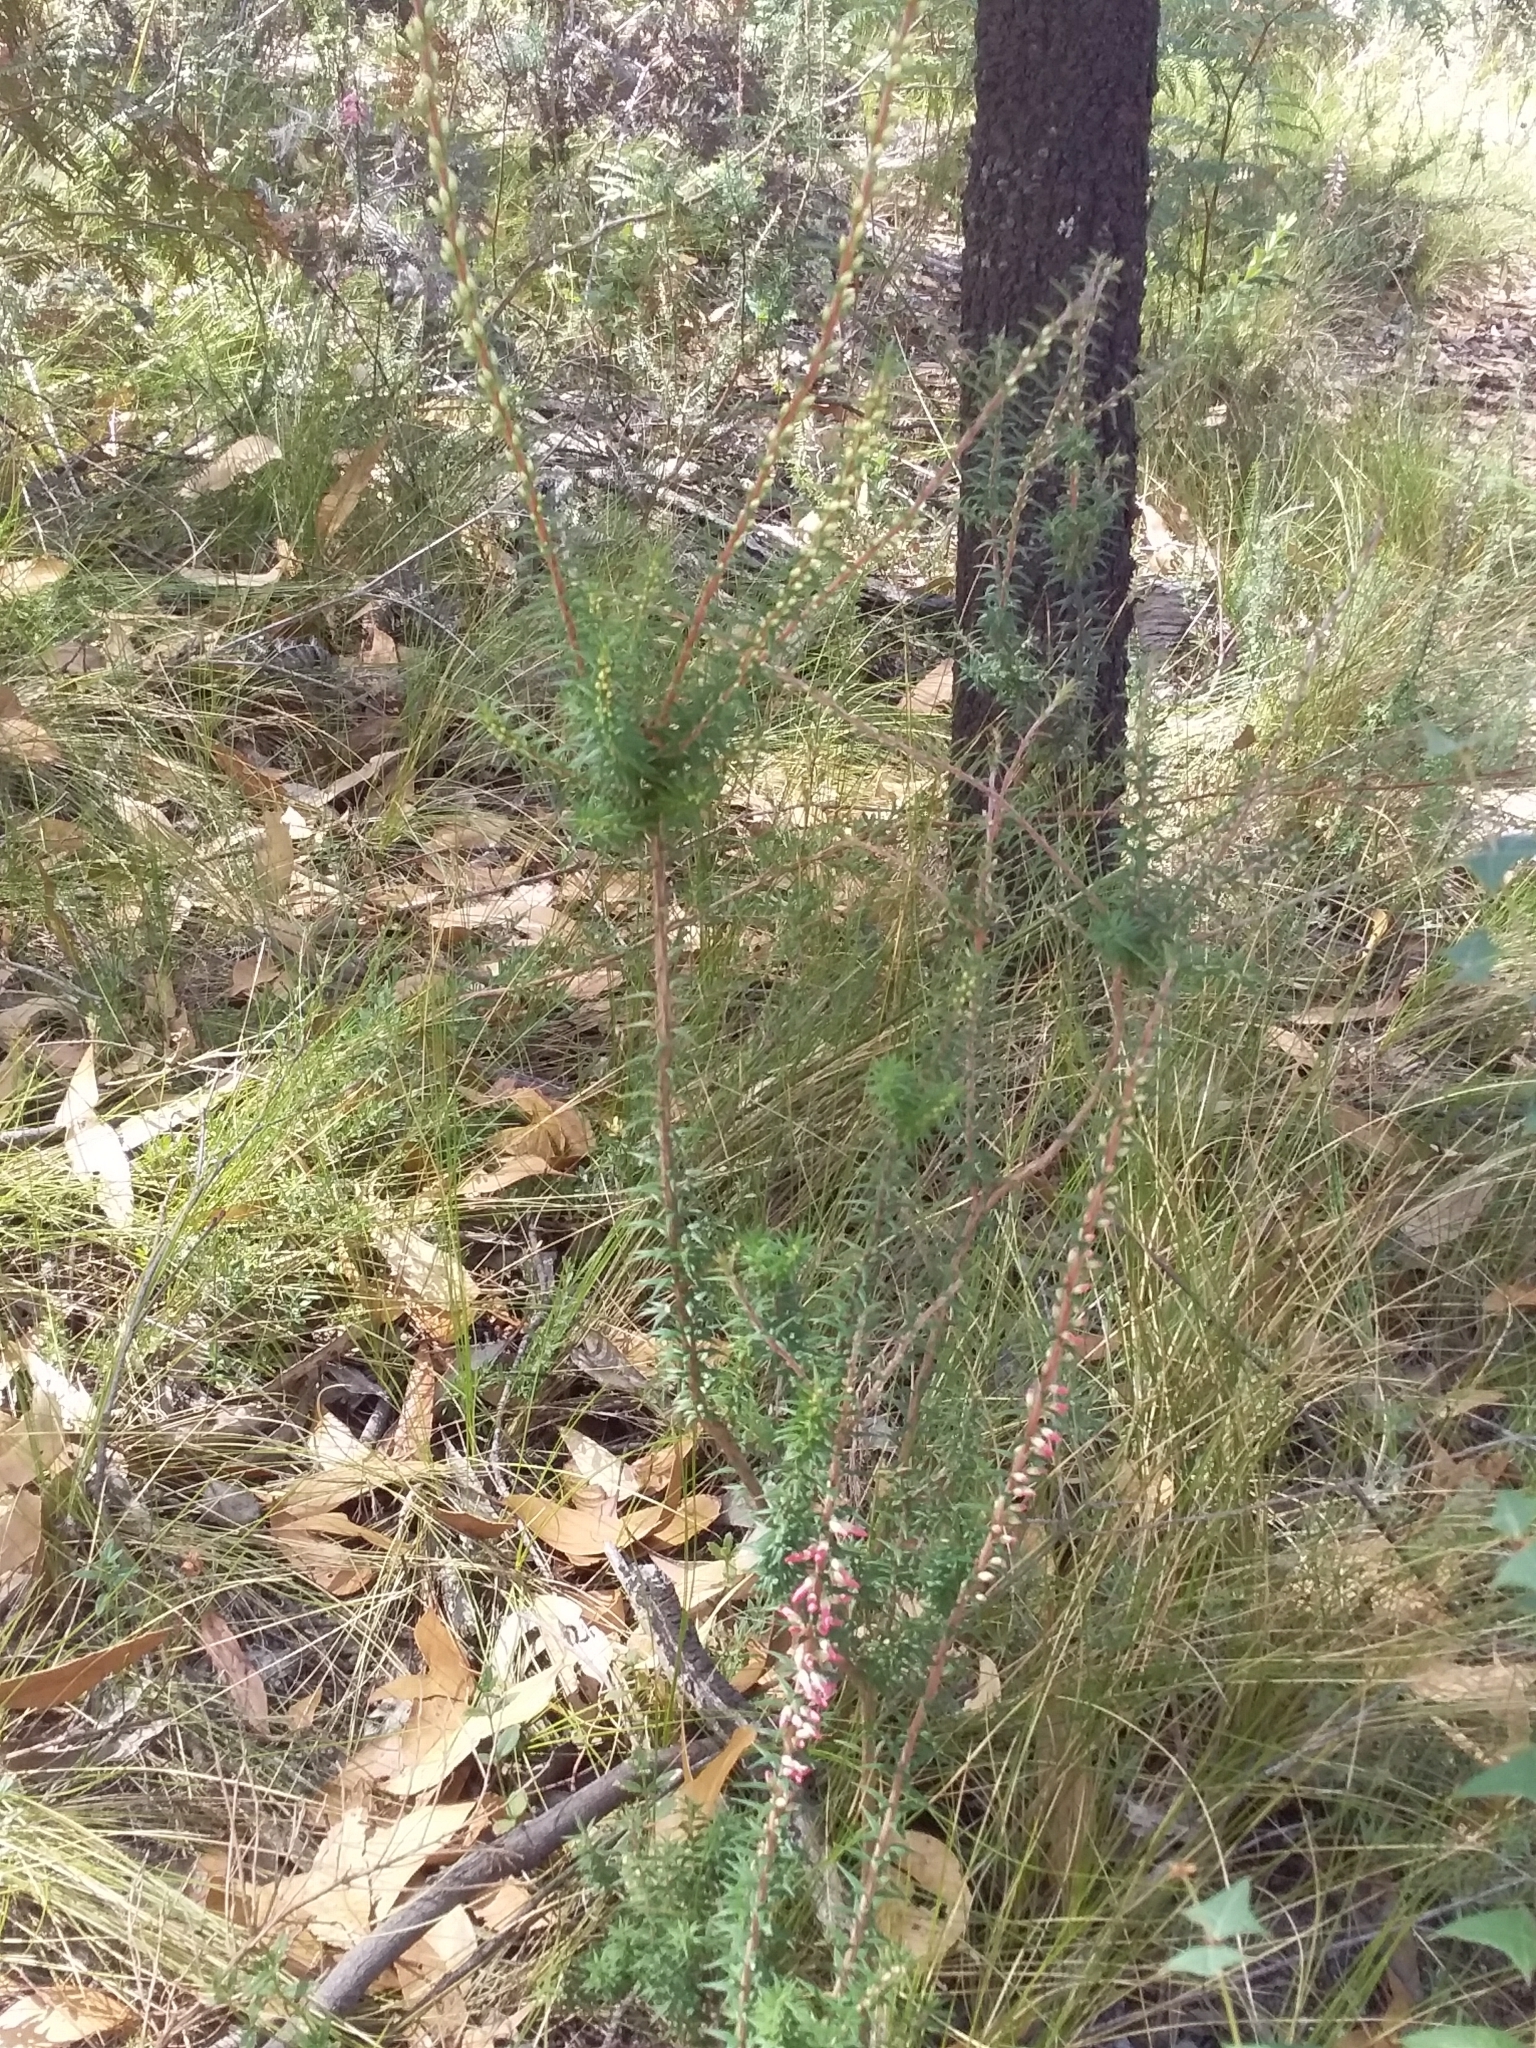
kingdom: Plantae
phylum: Tracheophyta
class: Magnoliopsida
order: Ericales
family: Ericaceae
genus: Epacris
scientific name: Epacris impressa
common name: Common-heath
